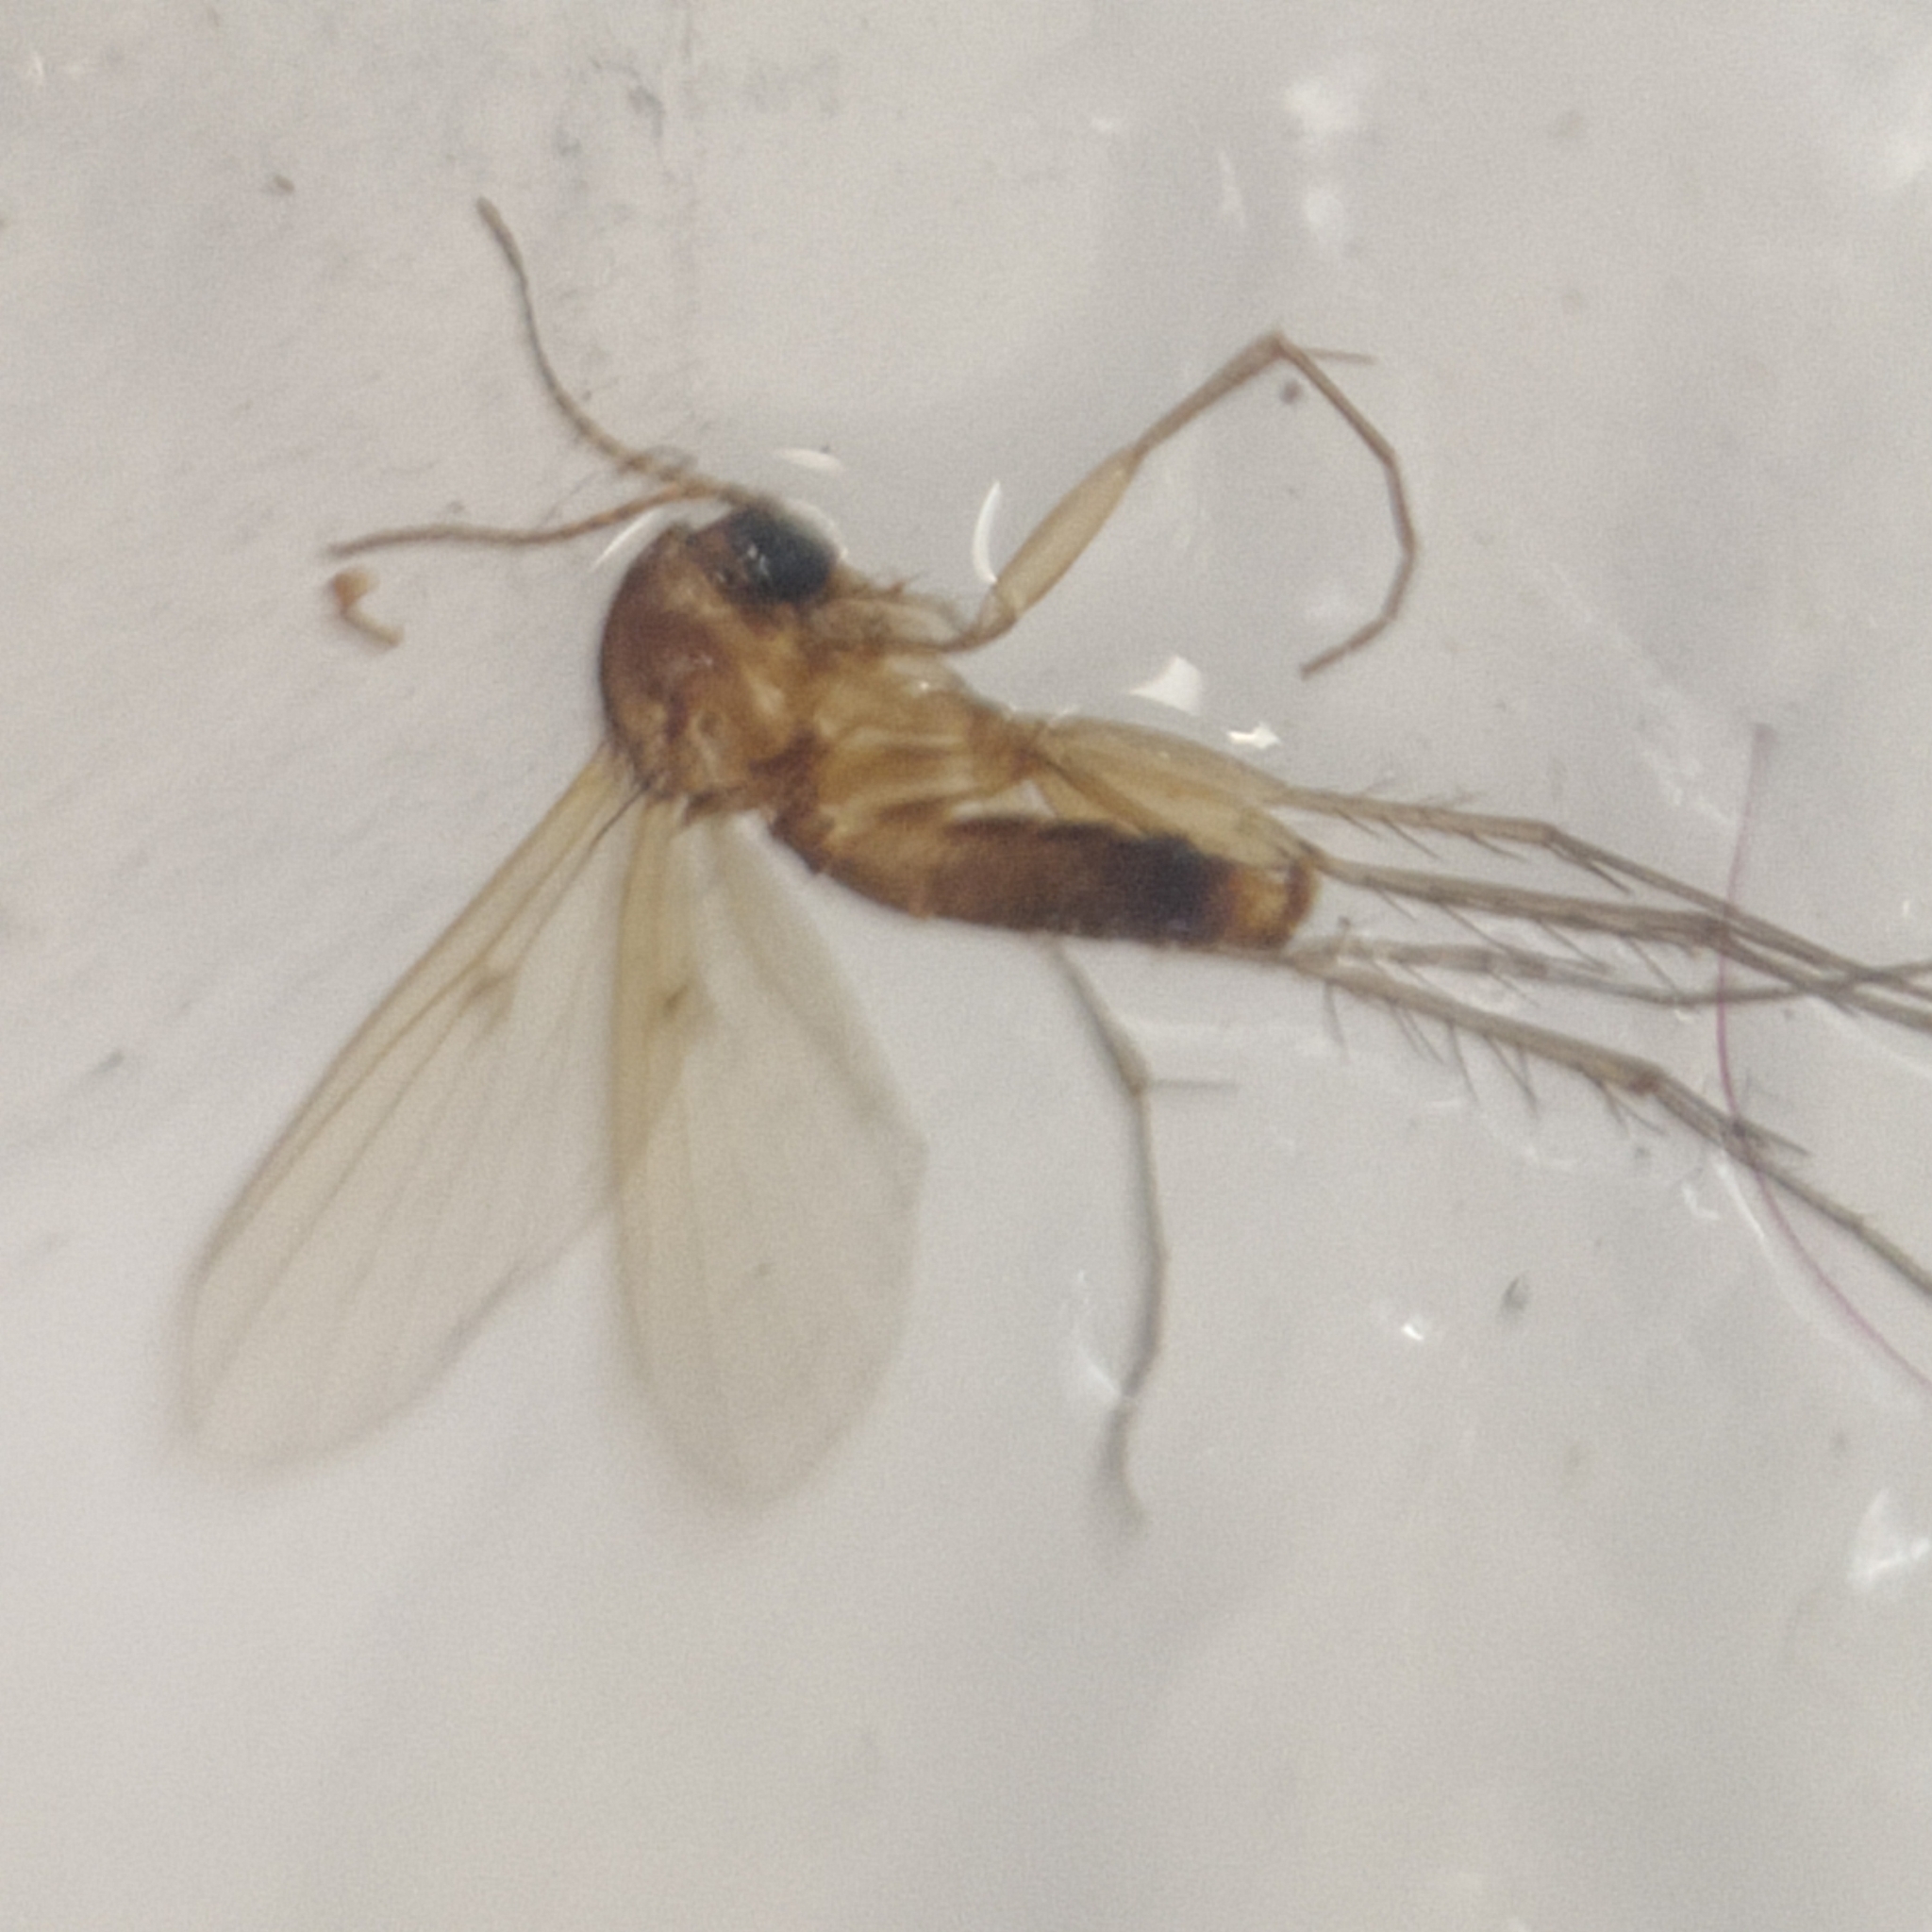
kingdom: Animalia
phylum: Arthropoda
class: Insecta
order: Diptera
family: Mycetophilidae
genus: Mycetophila
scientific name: Mycetophila fagi
